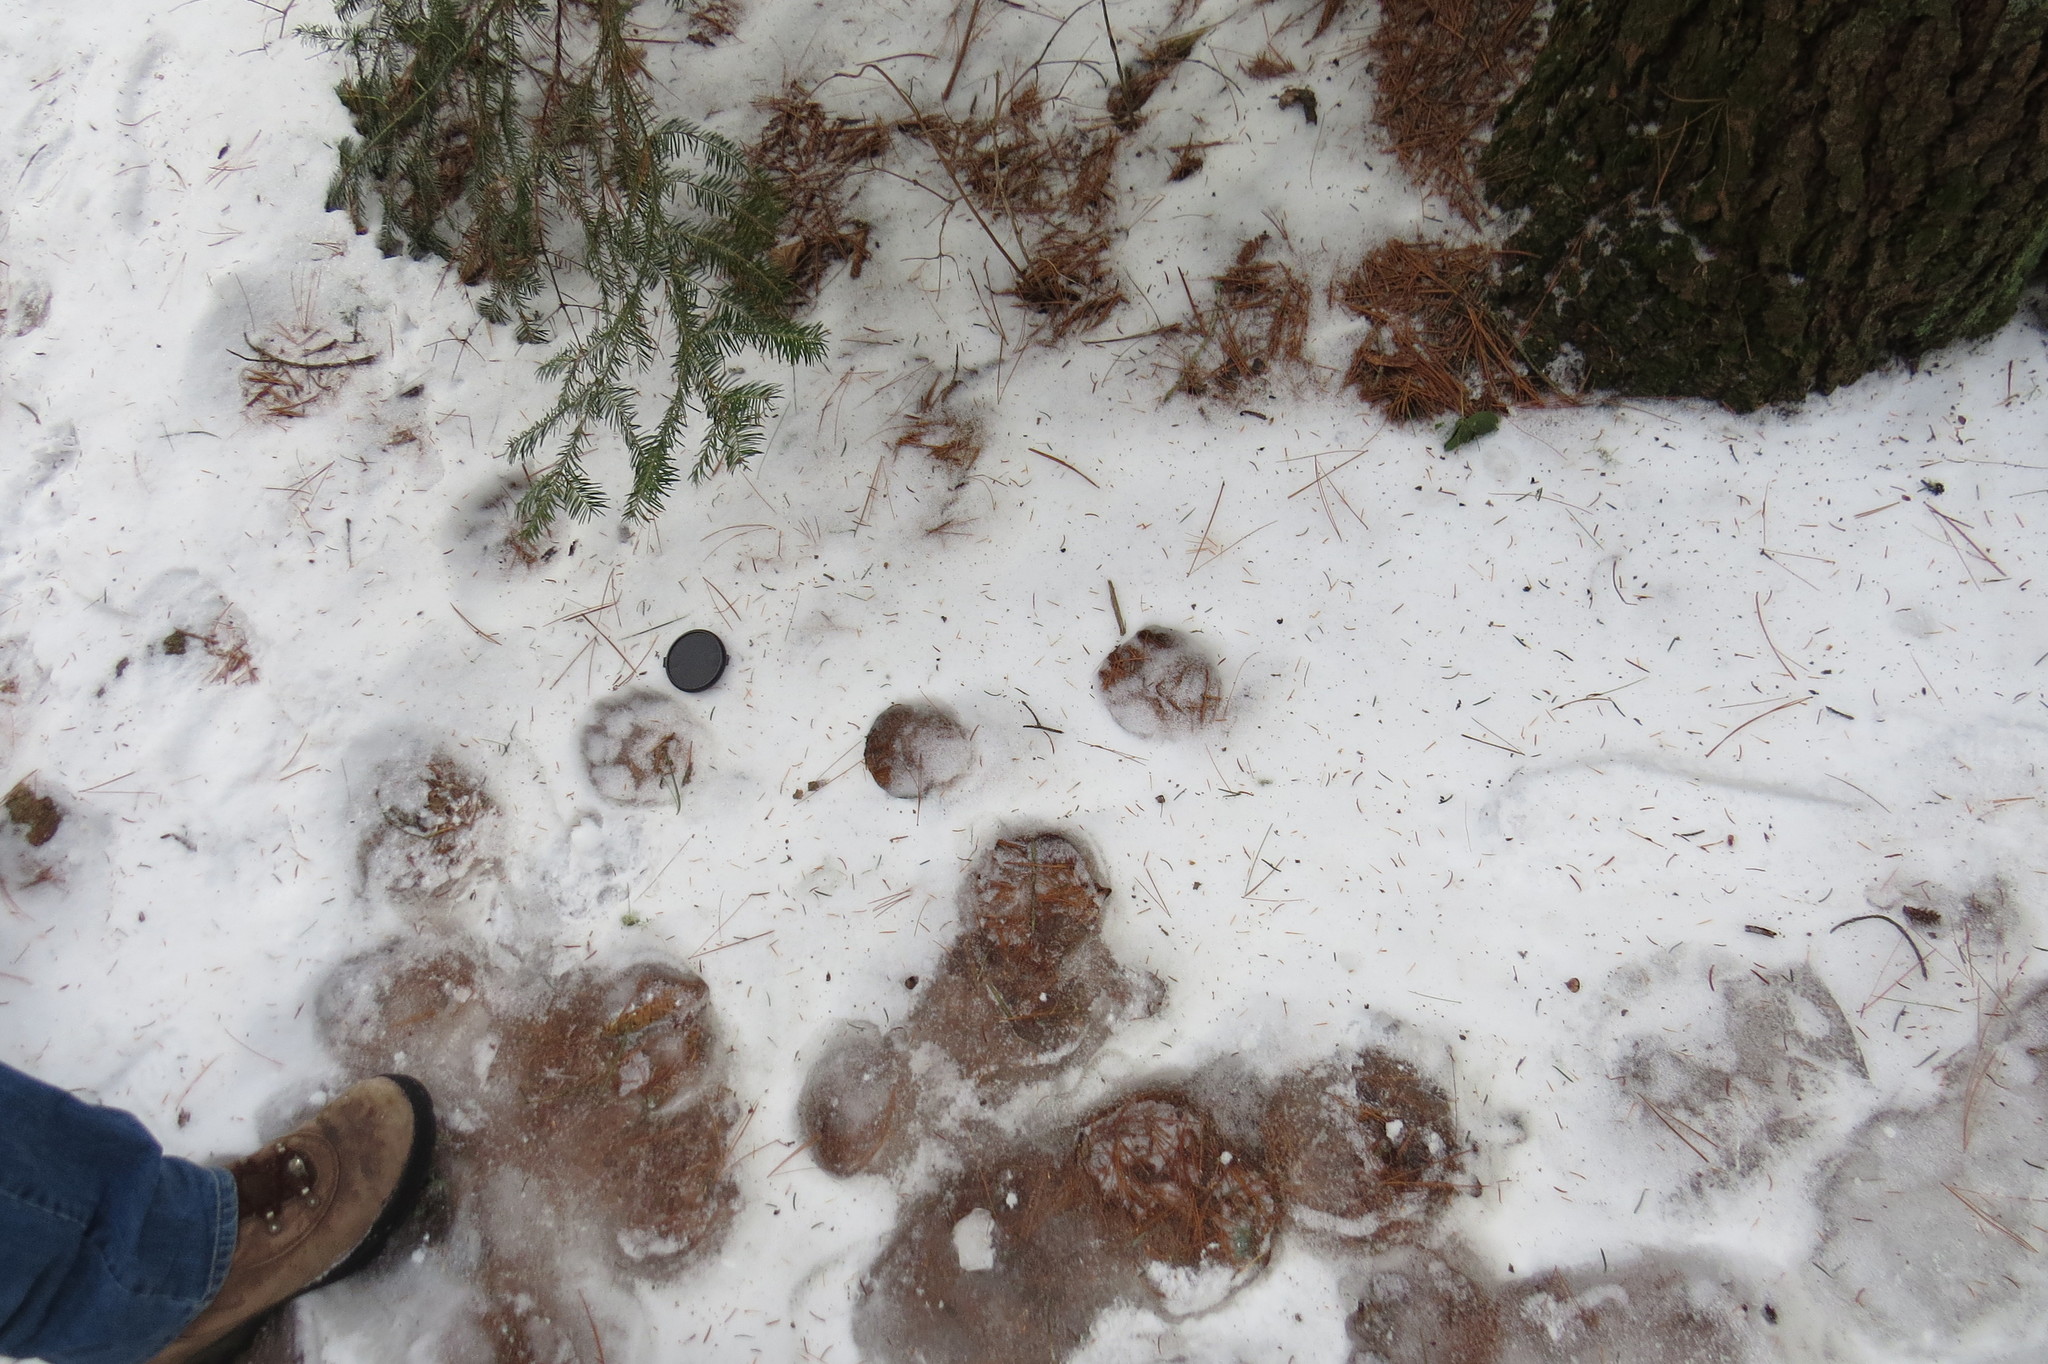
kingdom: Animalia
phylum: Chordata
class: Mammalia
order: Carnivora
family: Canidae
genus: Canis
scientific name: Canis lycaon
